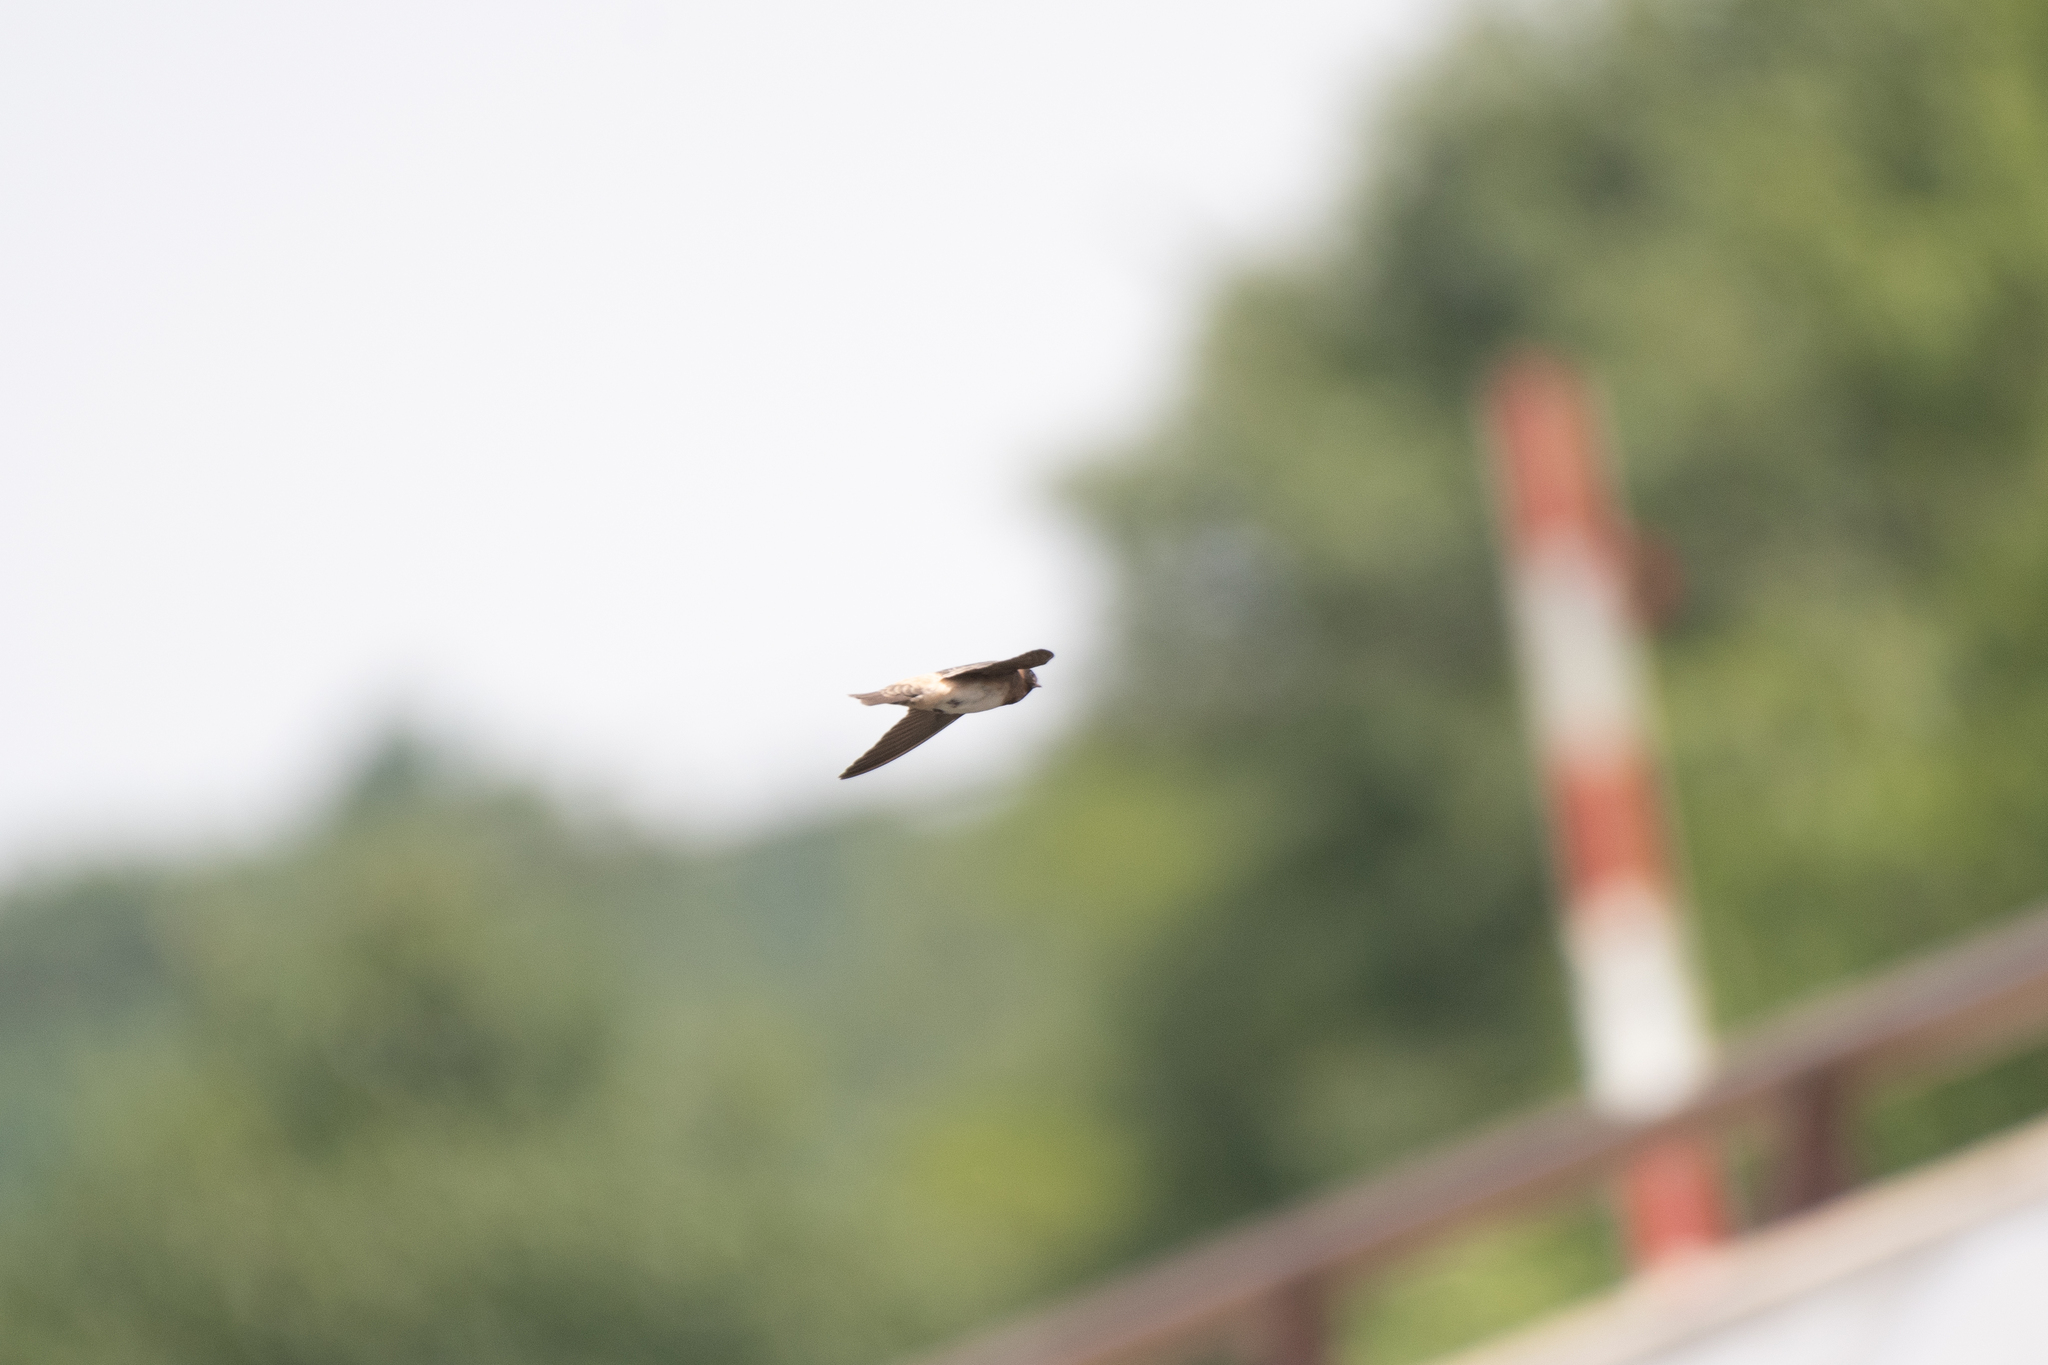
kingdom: Animalia
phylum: Chordata
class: Aves
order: Passeriformes
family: Hirundinidae
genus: Petrochelidon
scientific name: Petrochelidon pyrrhonota
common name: American cliff swallow
